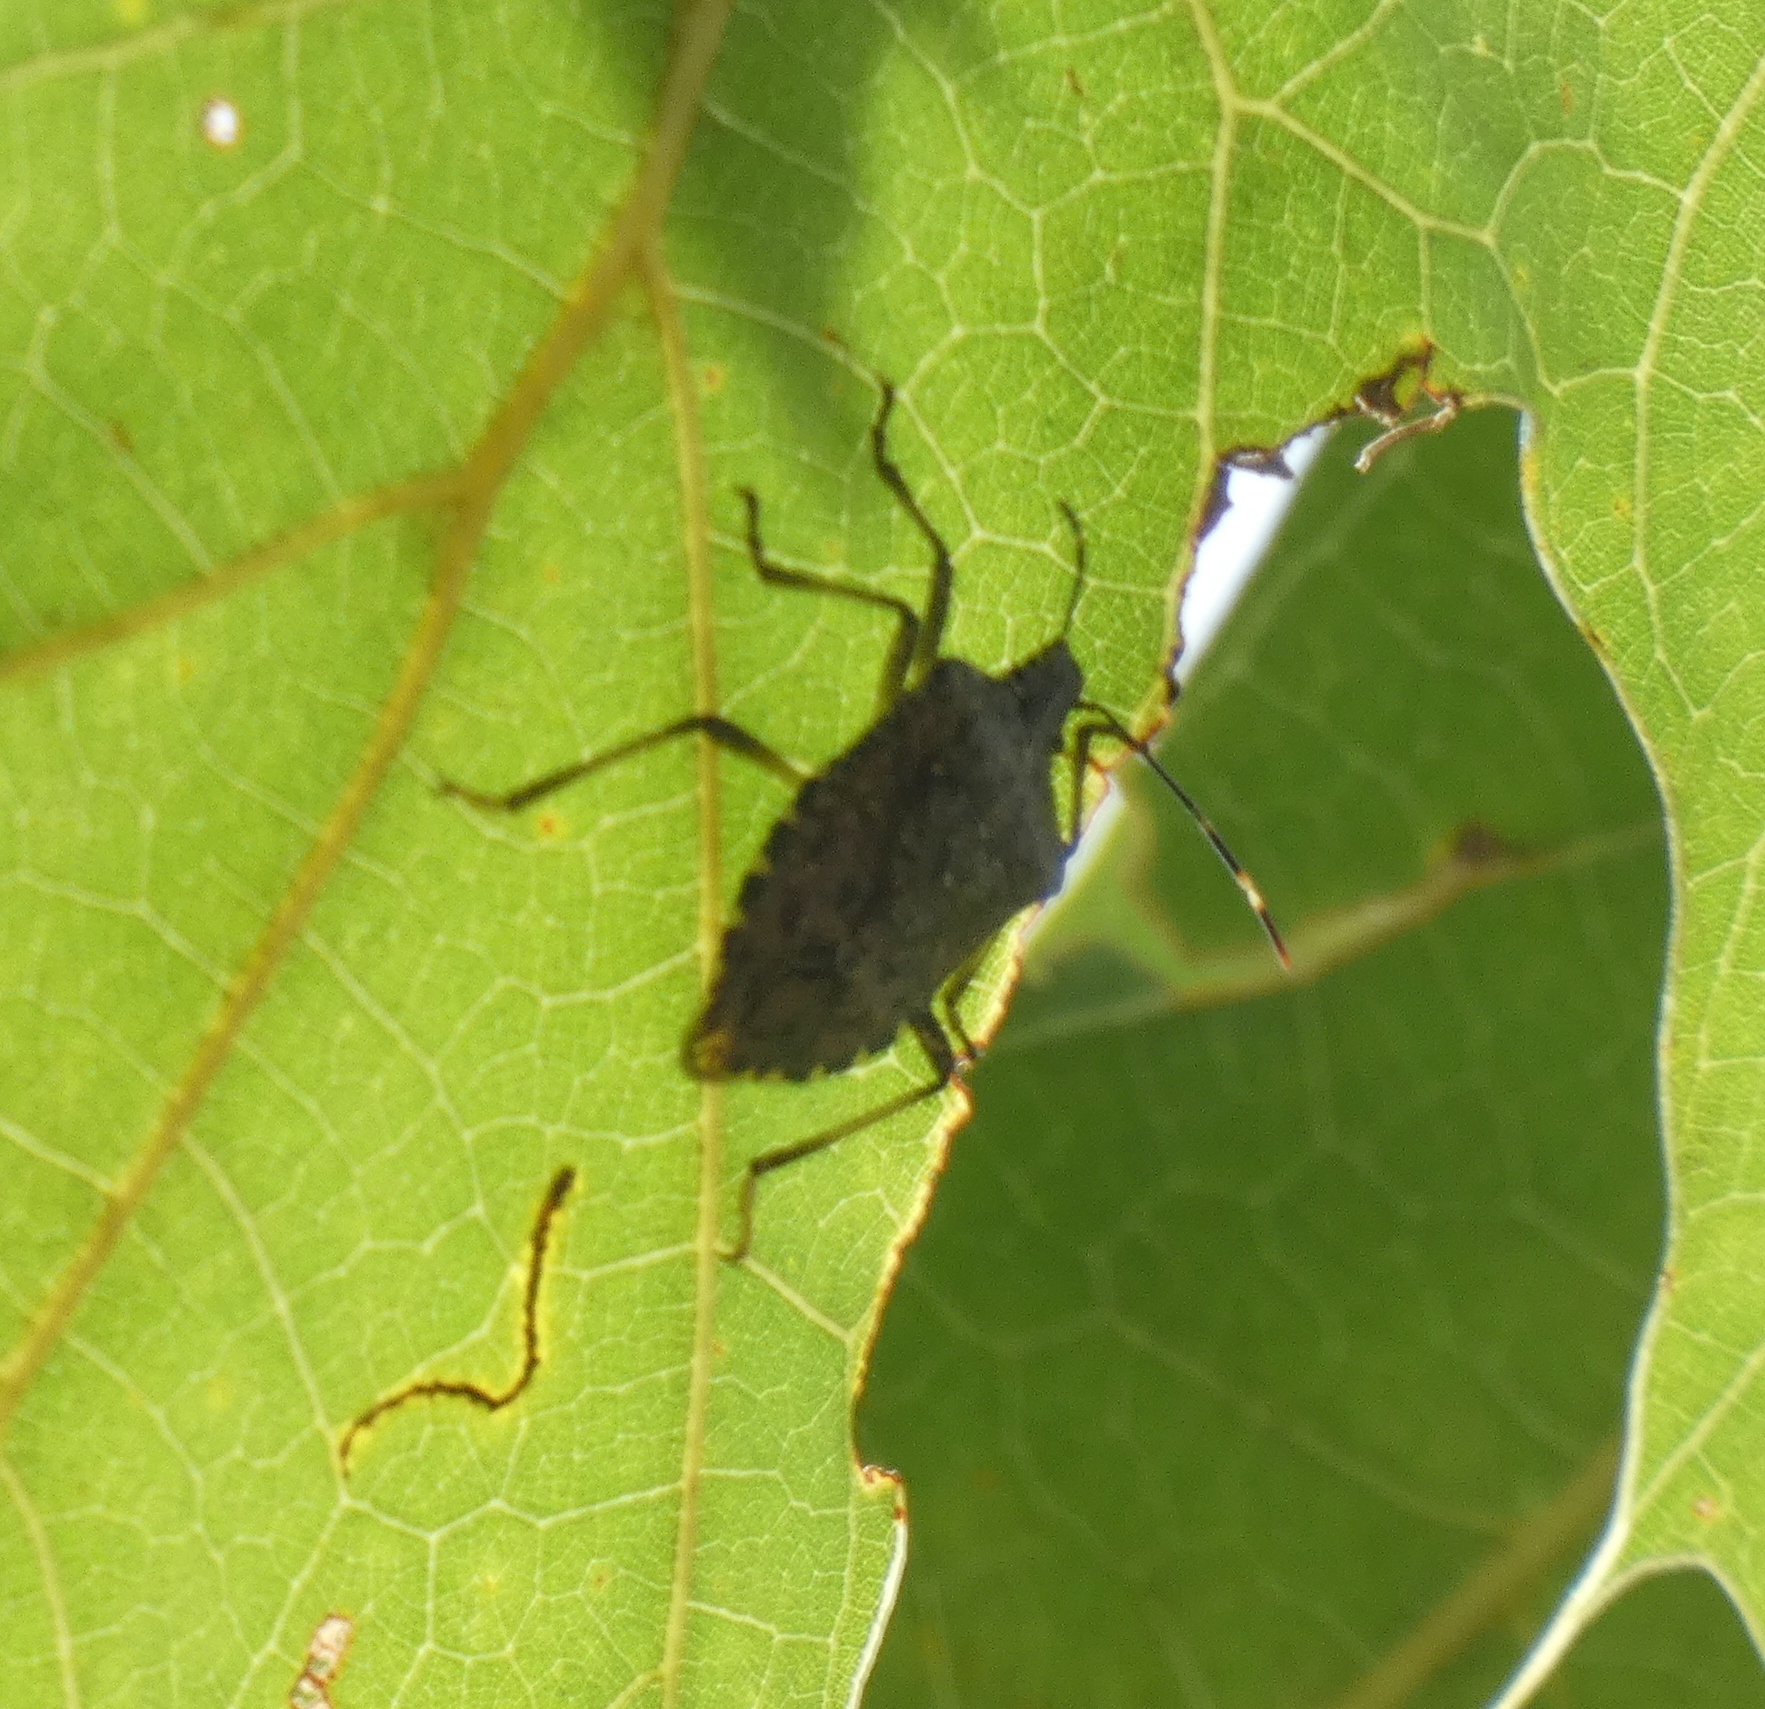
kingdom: Animalia
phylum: Arthropoda
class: Insecta
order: Hemiptera
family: Pentatomidae
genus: Halyomorpha
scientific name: Halyomorpha halys
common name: Brown marmorated stink bug
